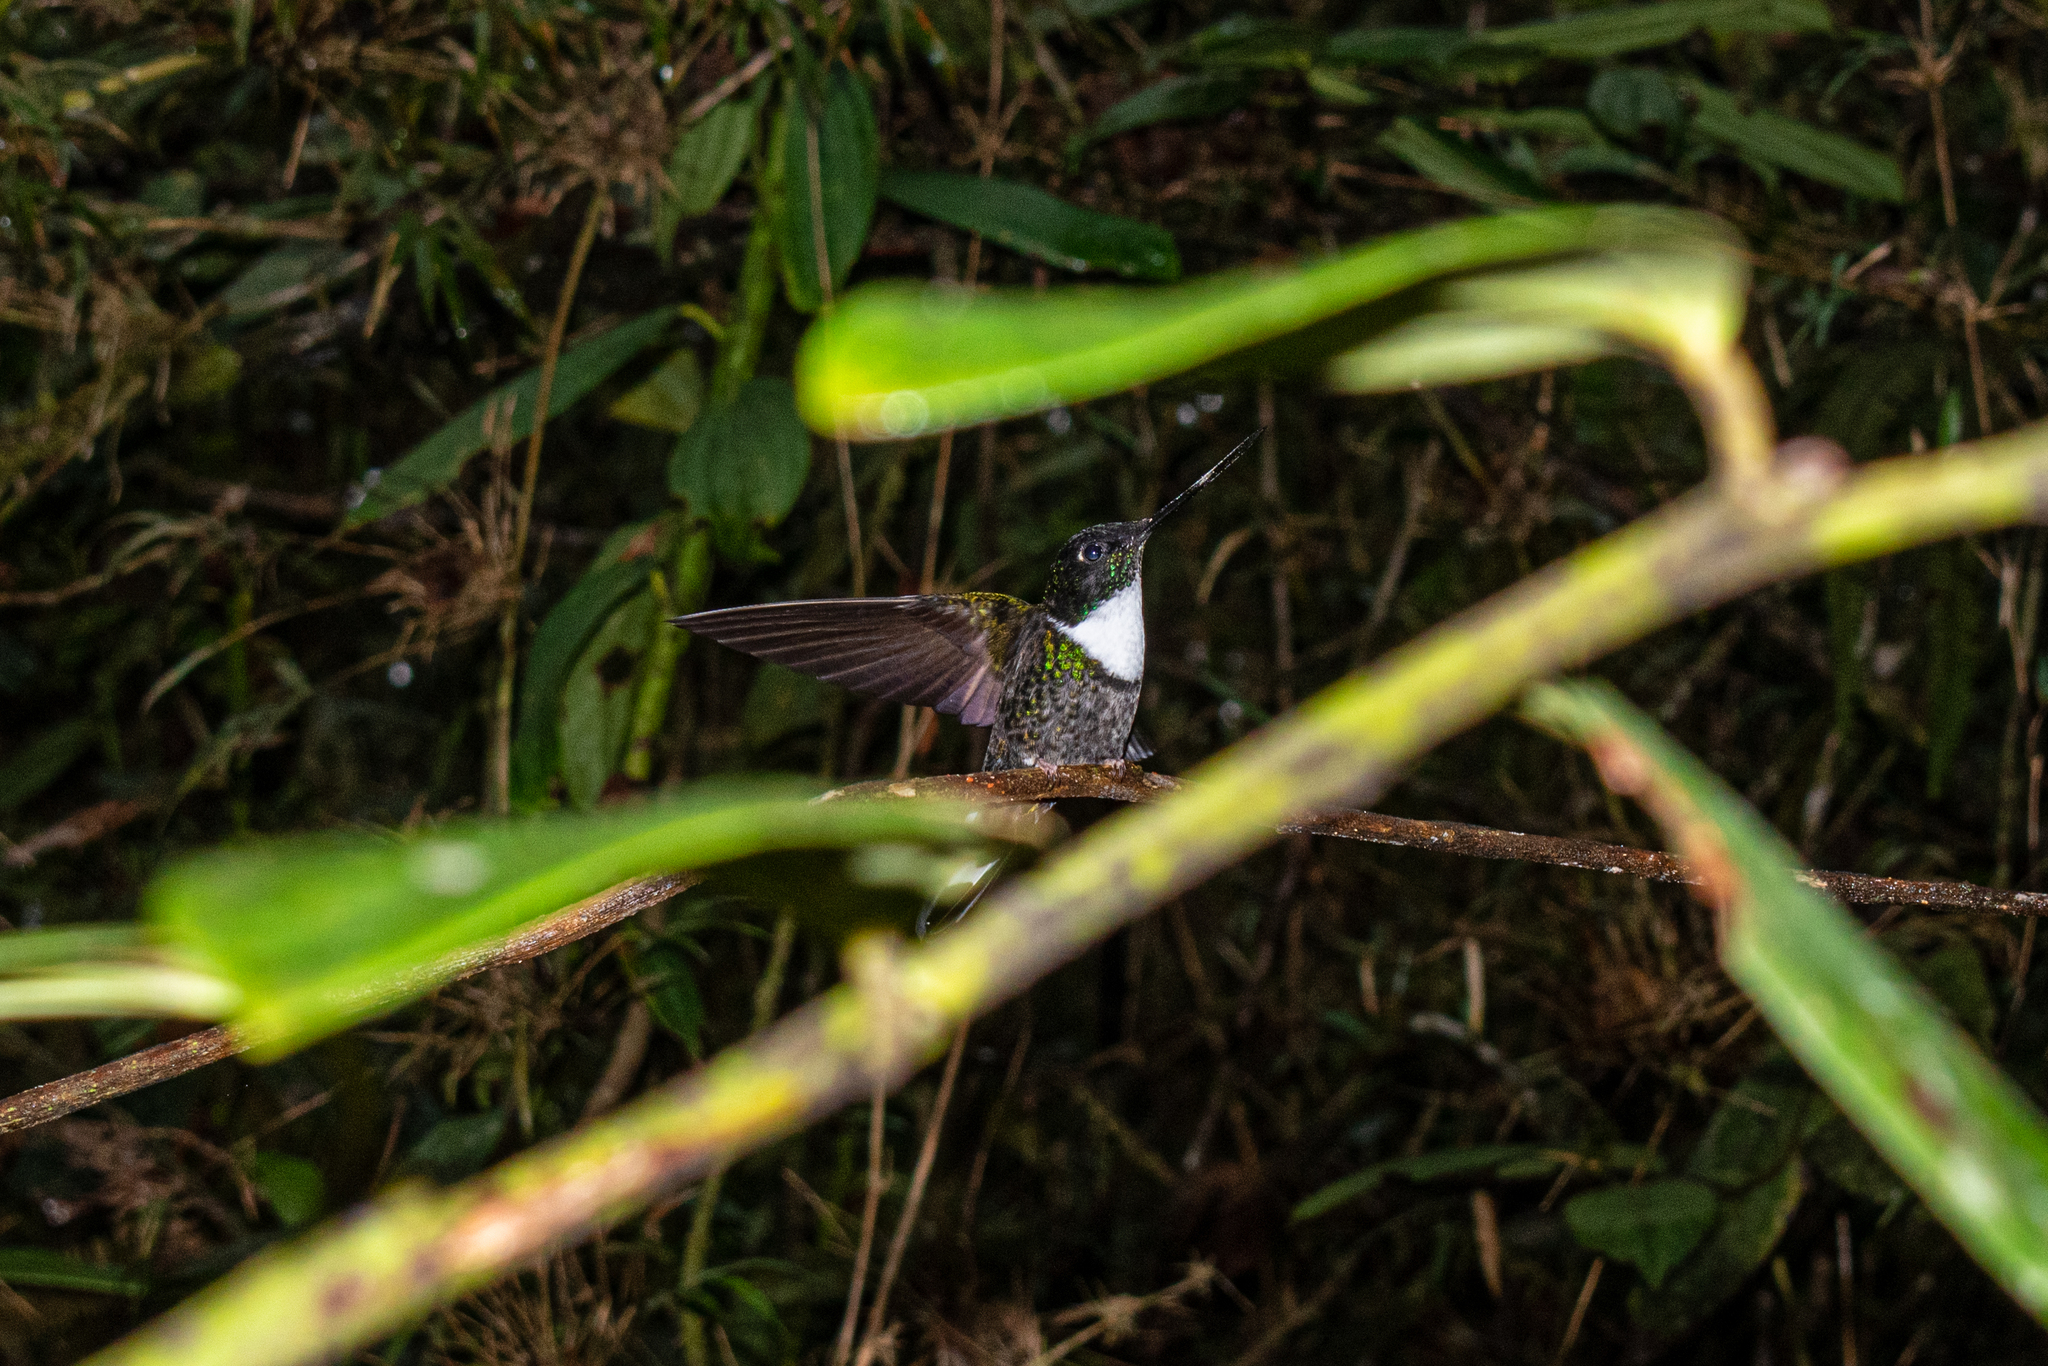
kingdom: Animalia
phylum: Chordata
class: Aves
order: Apodiformes
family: Trochilidae
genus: Coeligena
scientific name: Coeligena torquata
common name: Collared inca
